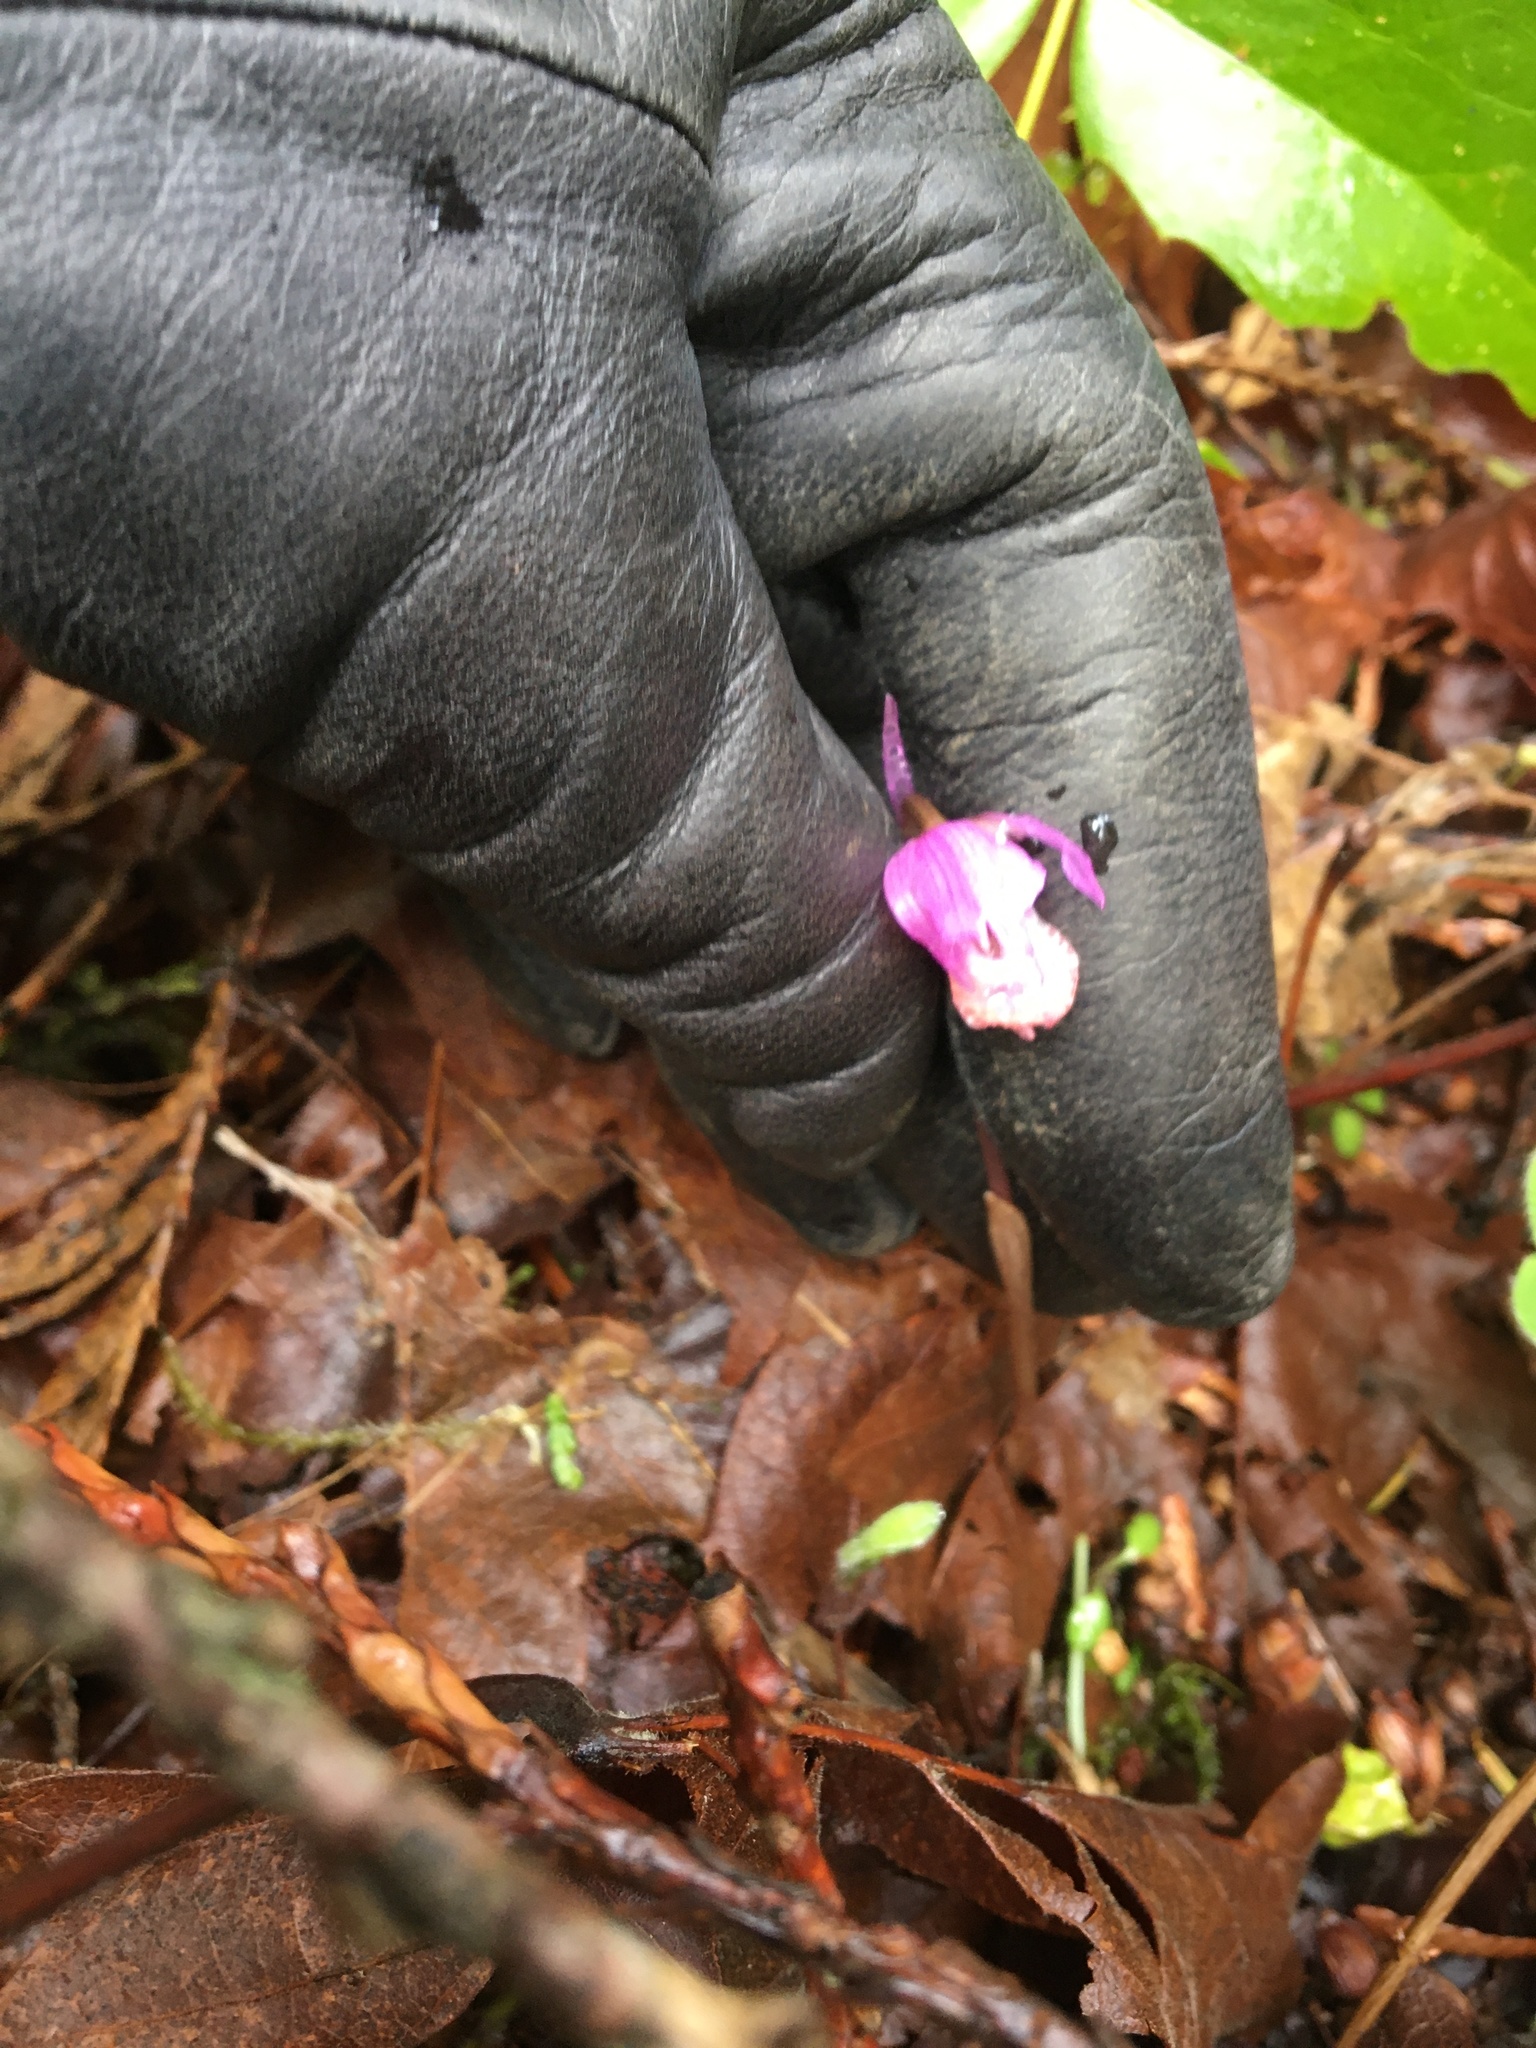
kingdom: Plantae
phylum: Tracheophyta
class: Liliopsida
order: Asparagales
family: Orchidaceae
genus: Calypso
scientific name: Calypso bulbosa
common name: Calypso
